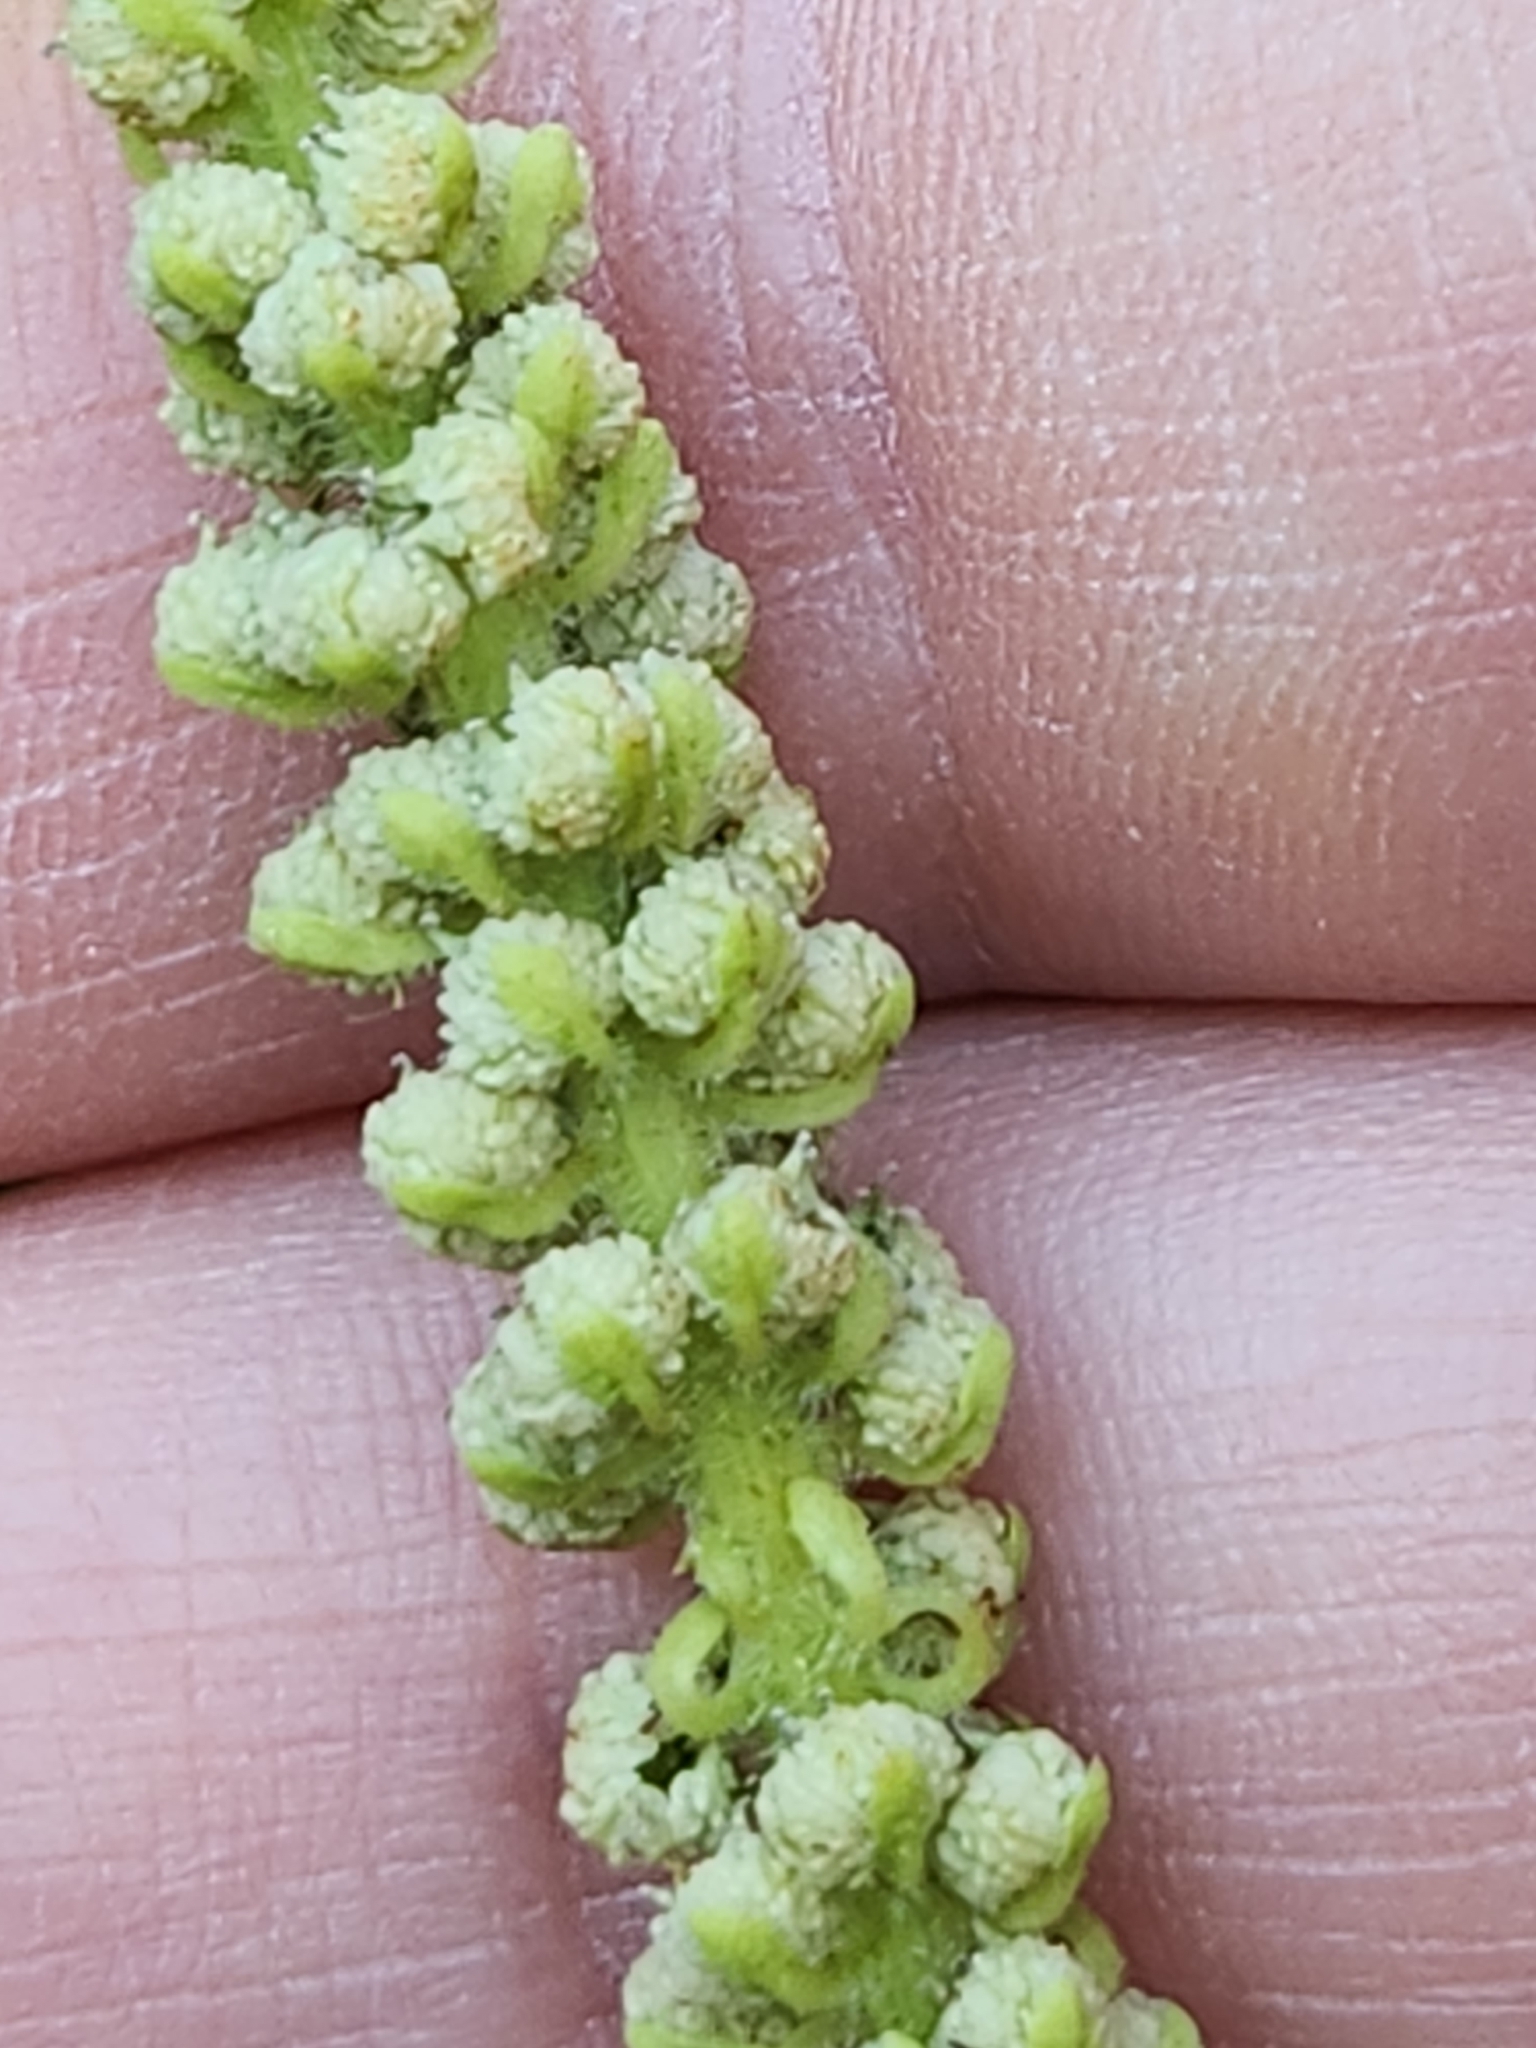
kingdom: Plantae
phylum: Tracheophyta
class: Magnoliopsida
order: Piperales
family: Saururaceae
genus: Saururus
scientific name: Saururus cernuus
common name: Lizard's-tail
